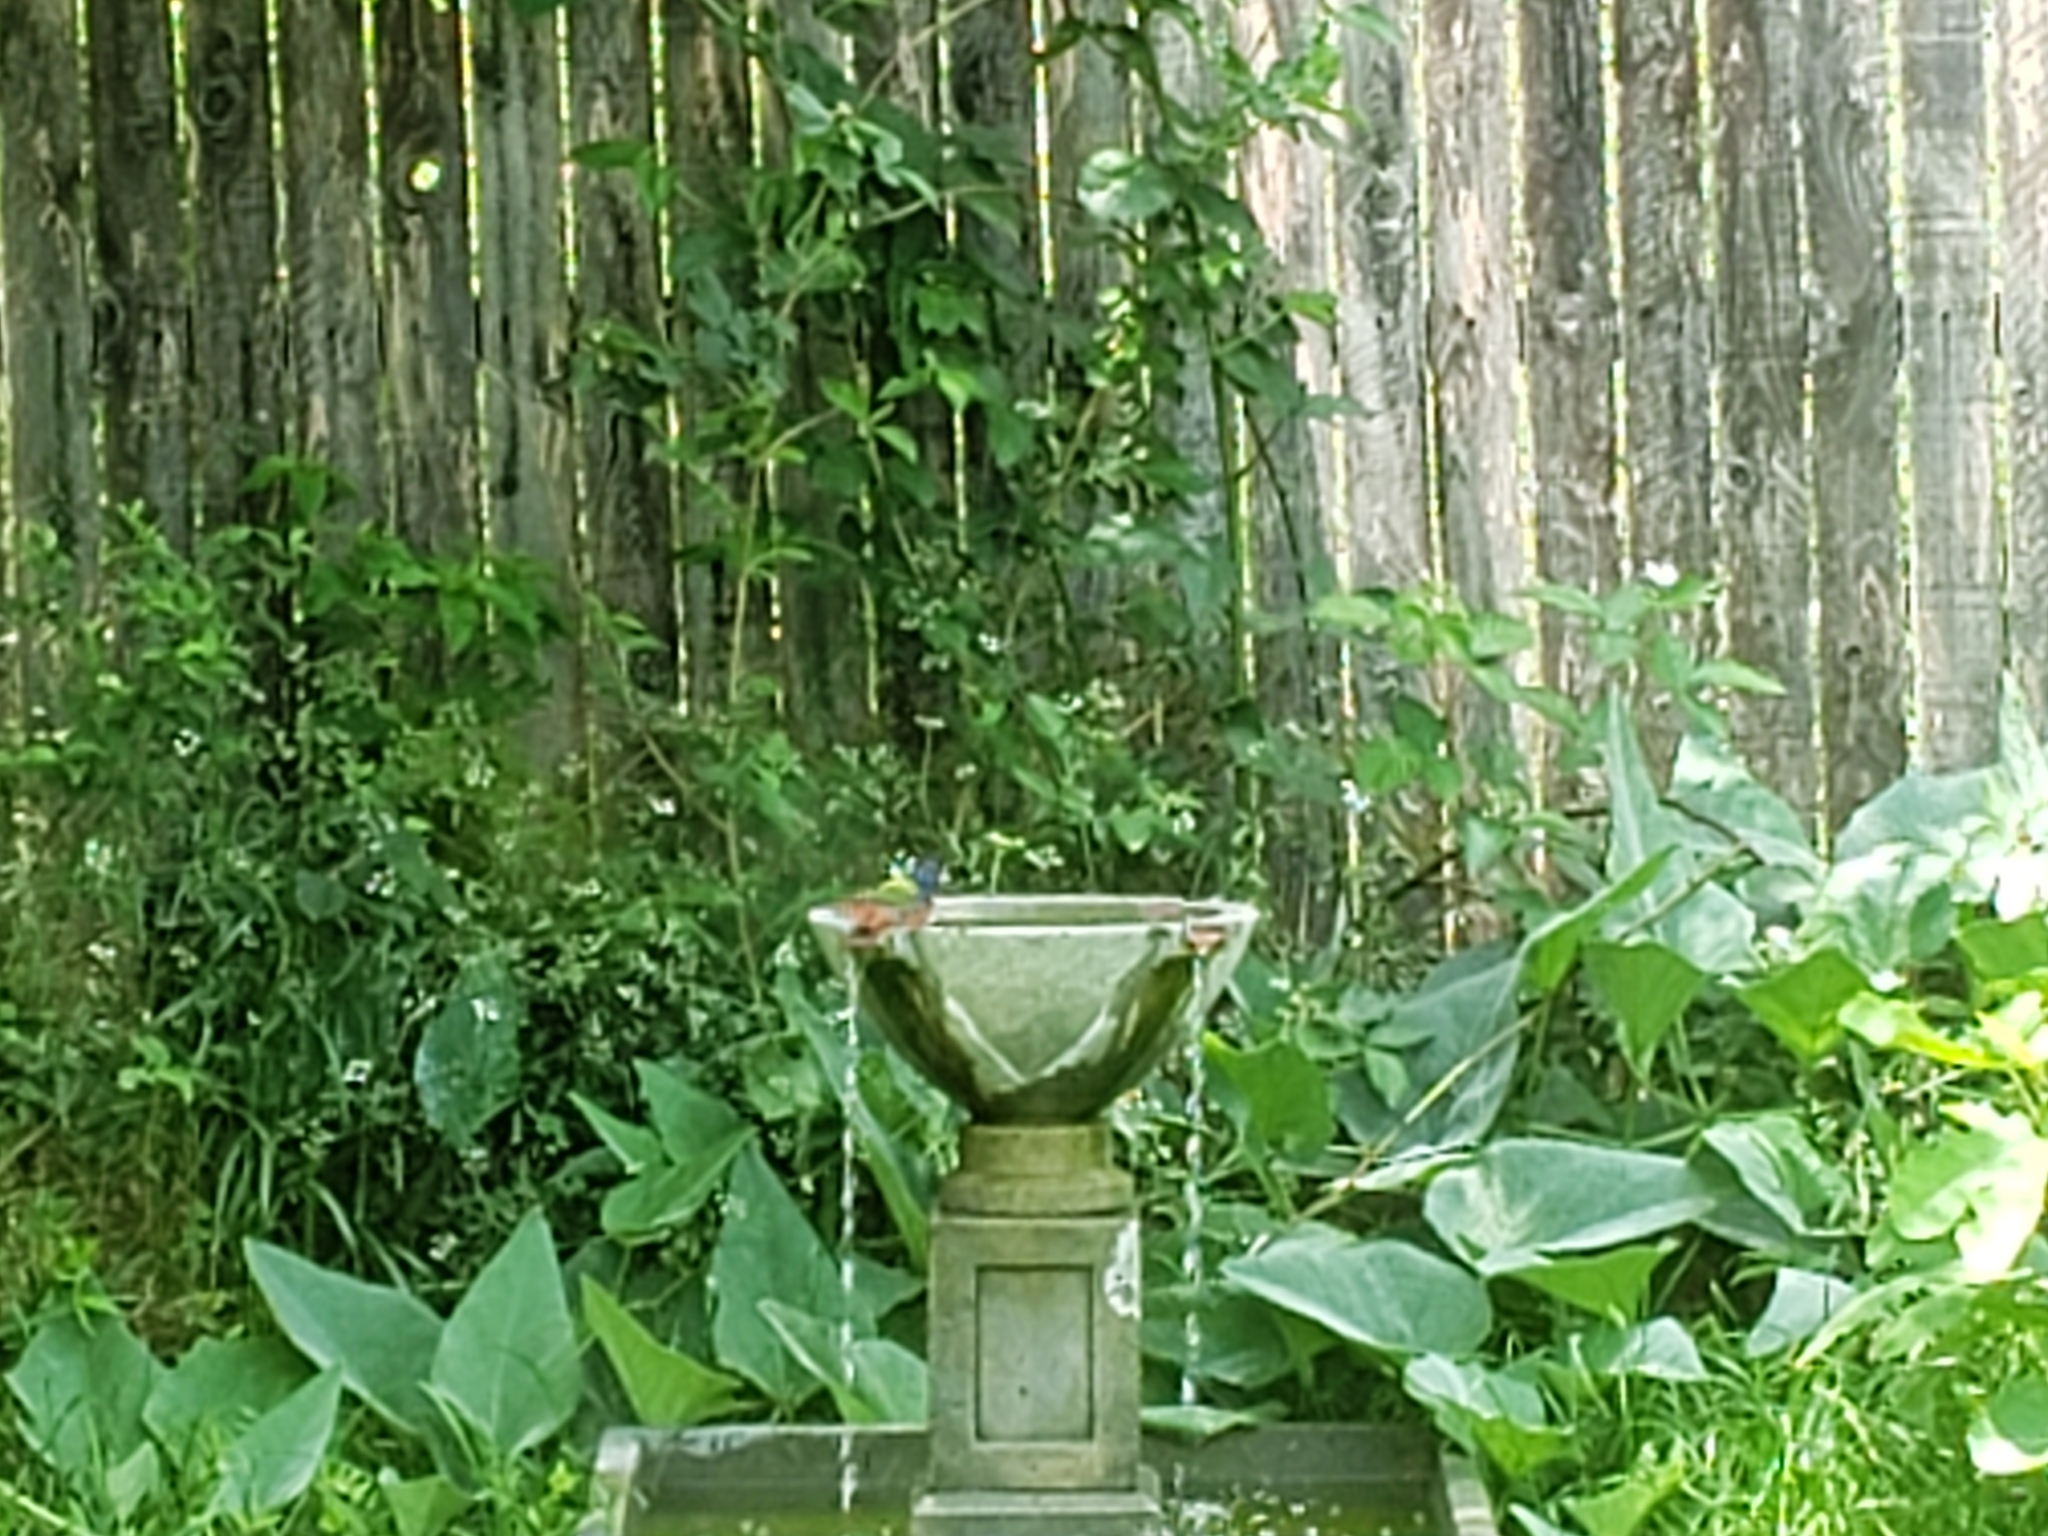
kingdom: Animalia
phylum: Chordata
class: Aves
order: Passeriformes
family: Cardinalidae
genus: Passerina
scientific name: Passerina ciris
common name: Painted bunting
